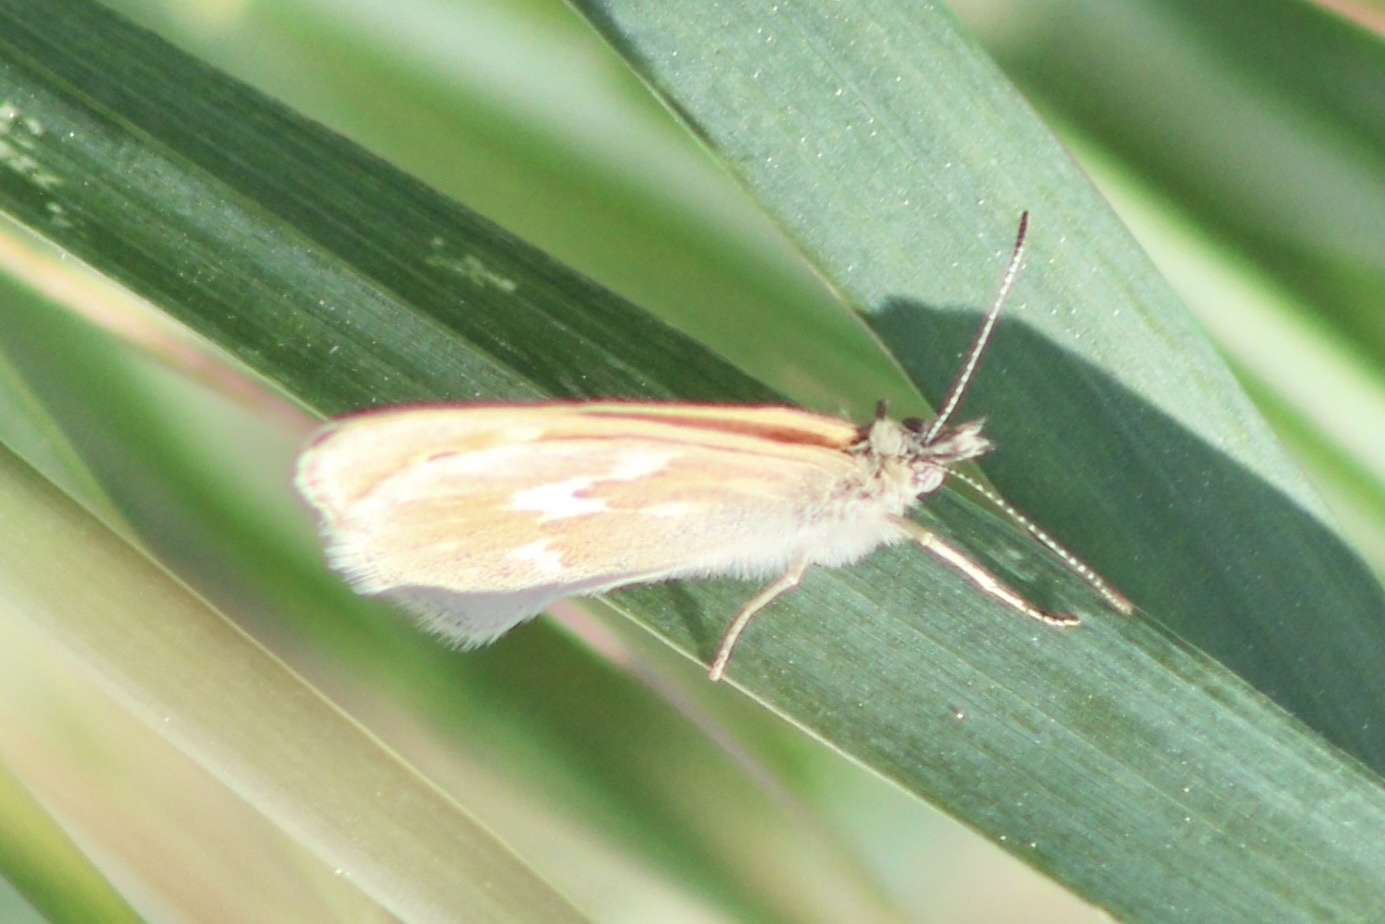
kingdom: Animalia
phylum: Arthropoda
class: Insecta
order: Lepidoptera
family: Nymphalidae
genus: Coenonympha
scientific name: Coenonympha california
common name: Common ringlet
